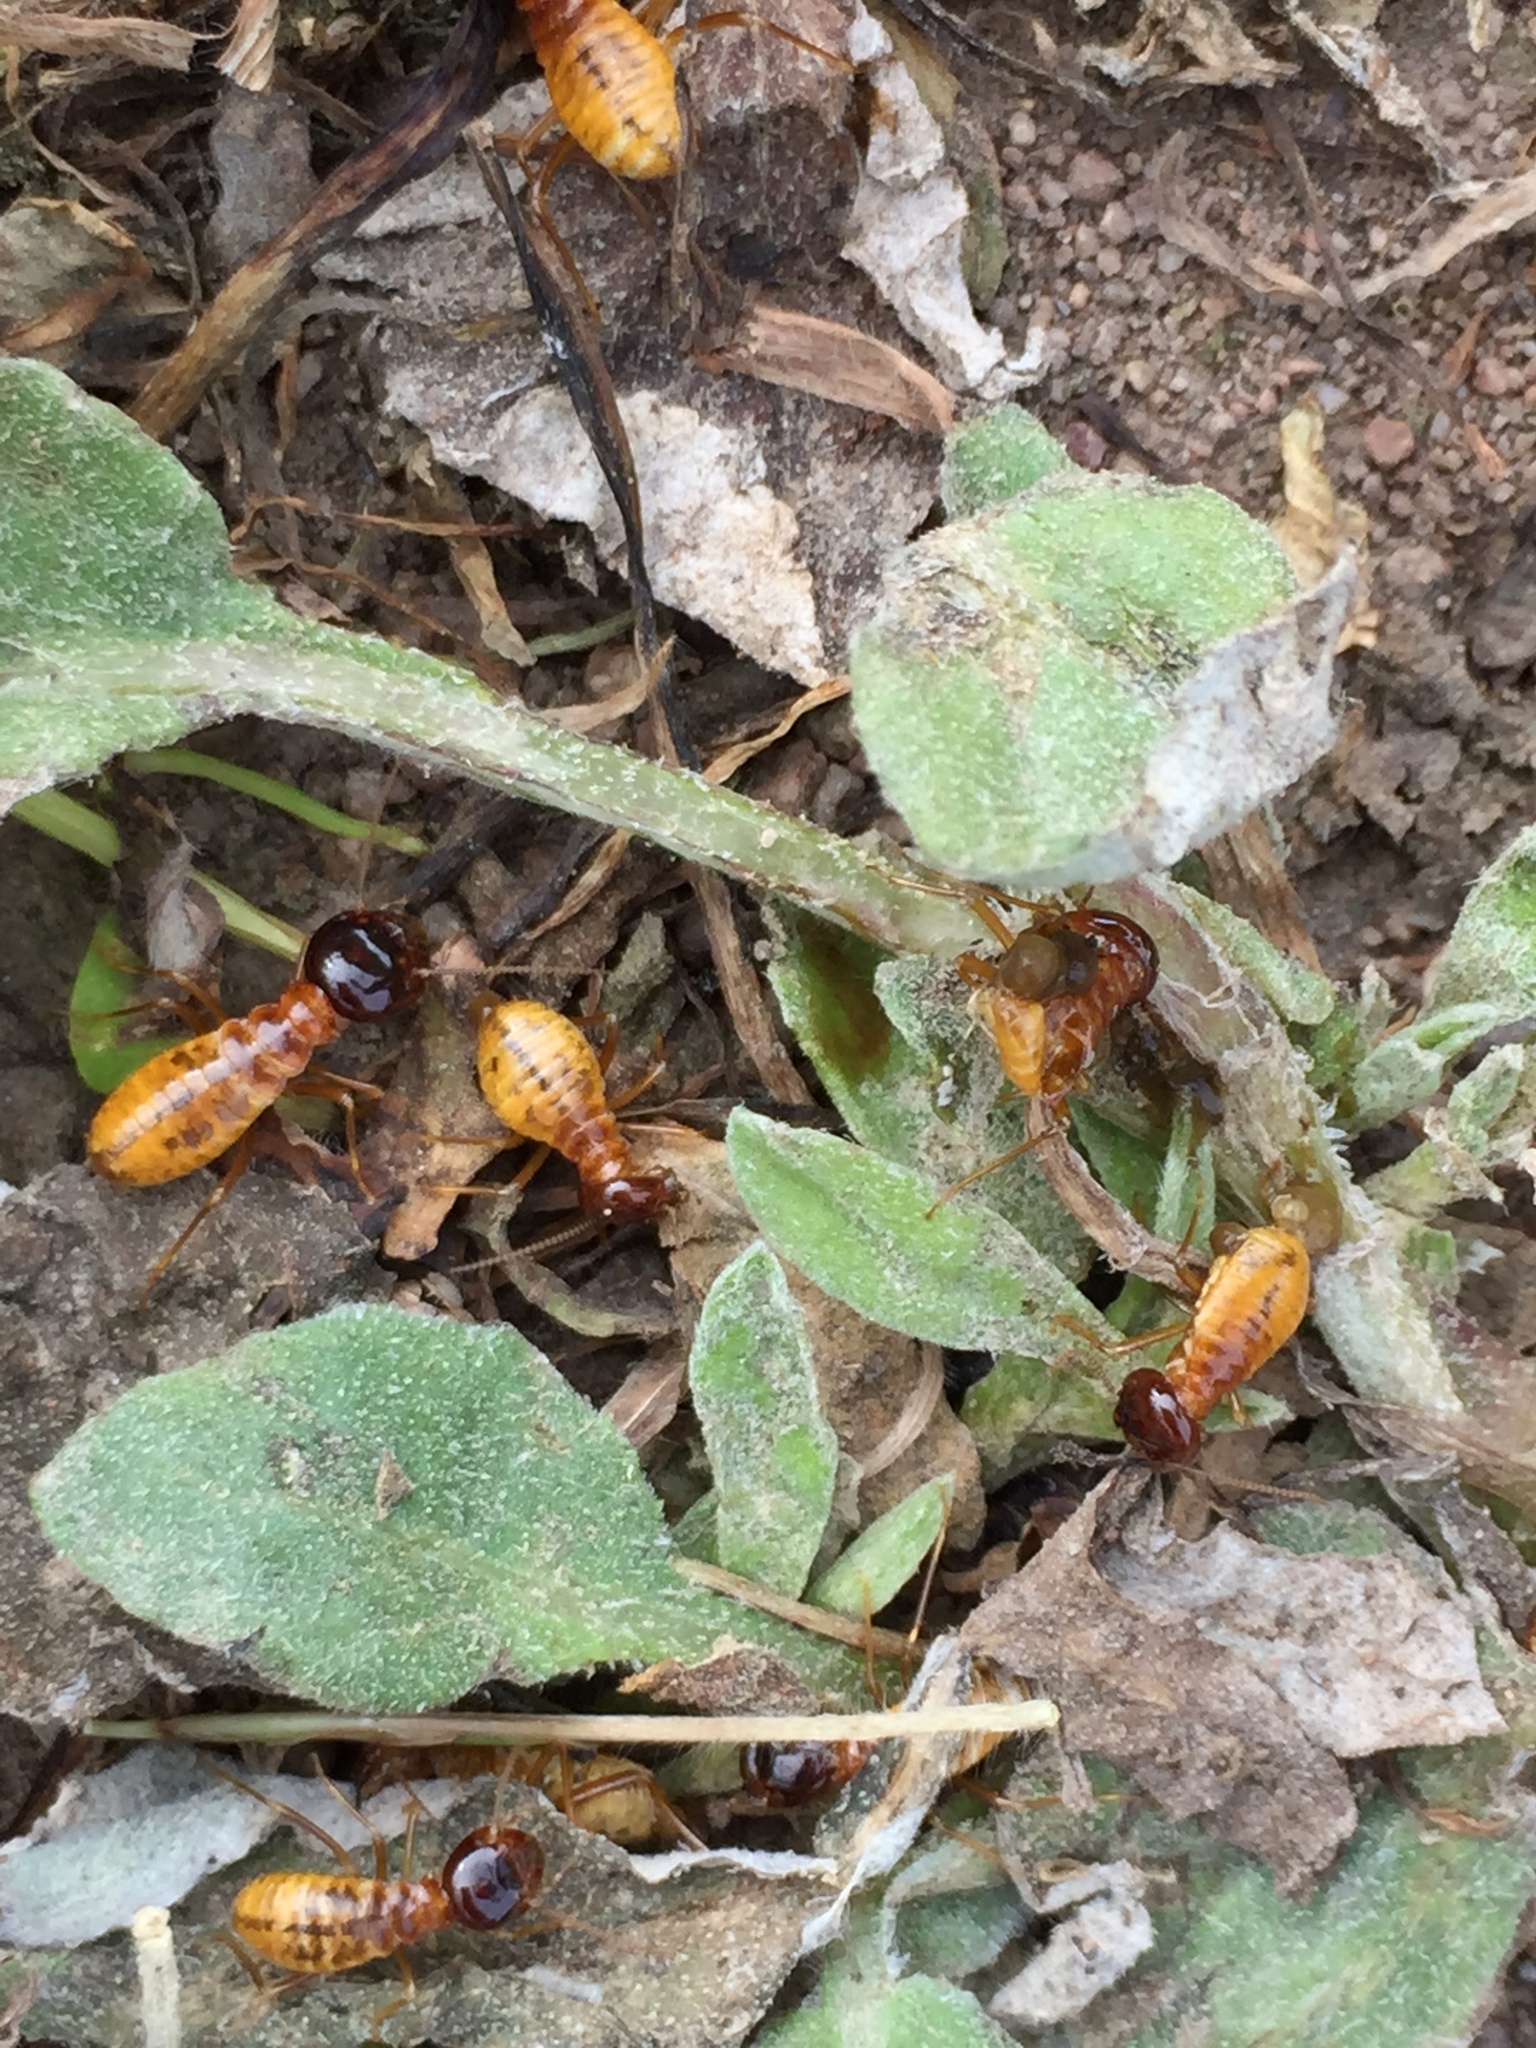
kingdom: Animalia
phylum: Arthropoda
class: Insecta
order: Blattodea
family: Hodotermitidae
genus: Microhodotermes
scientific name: Microhodotermes viator
